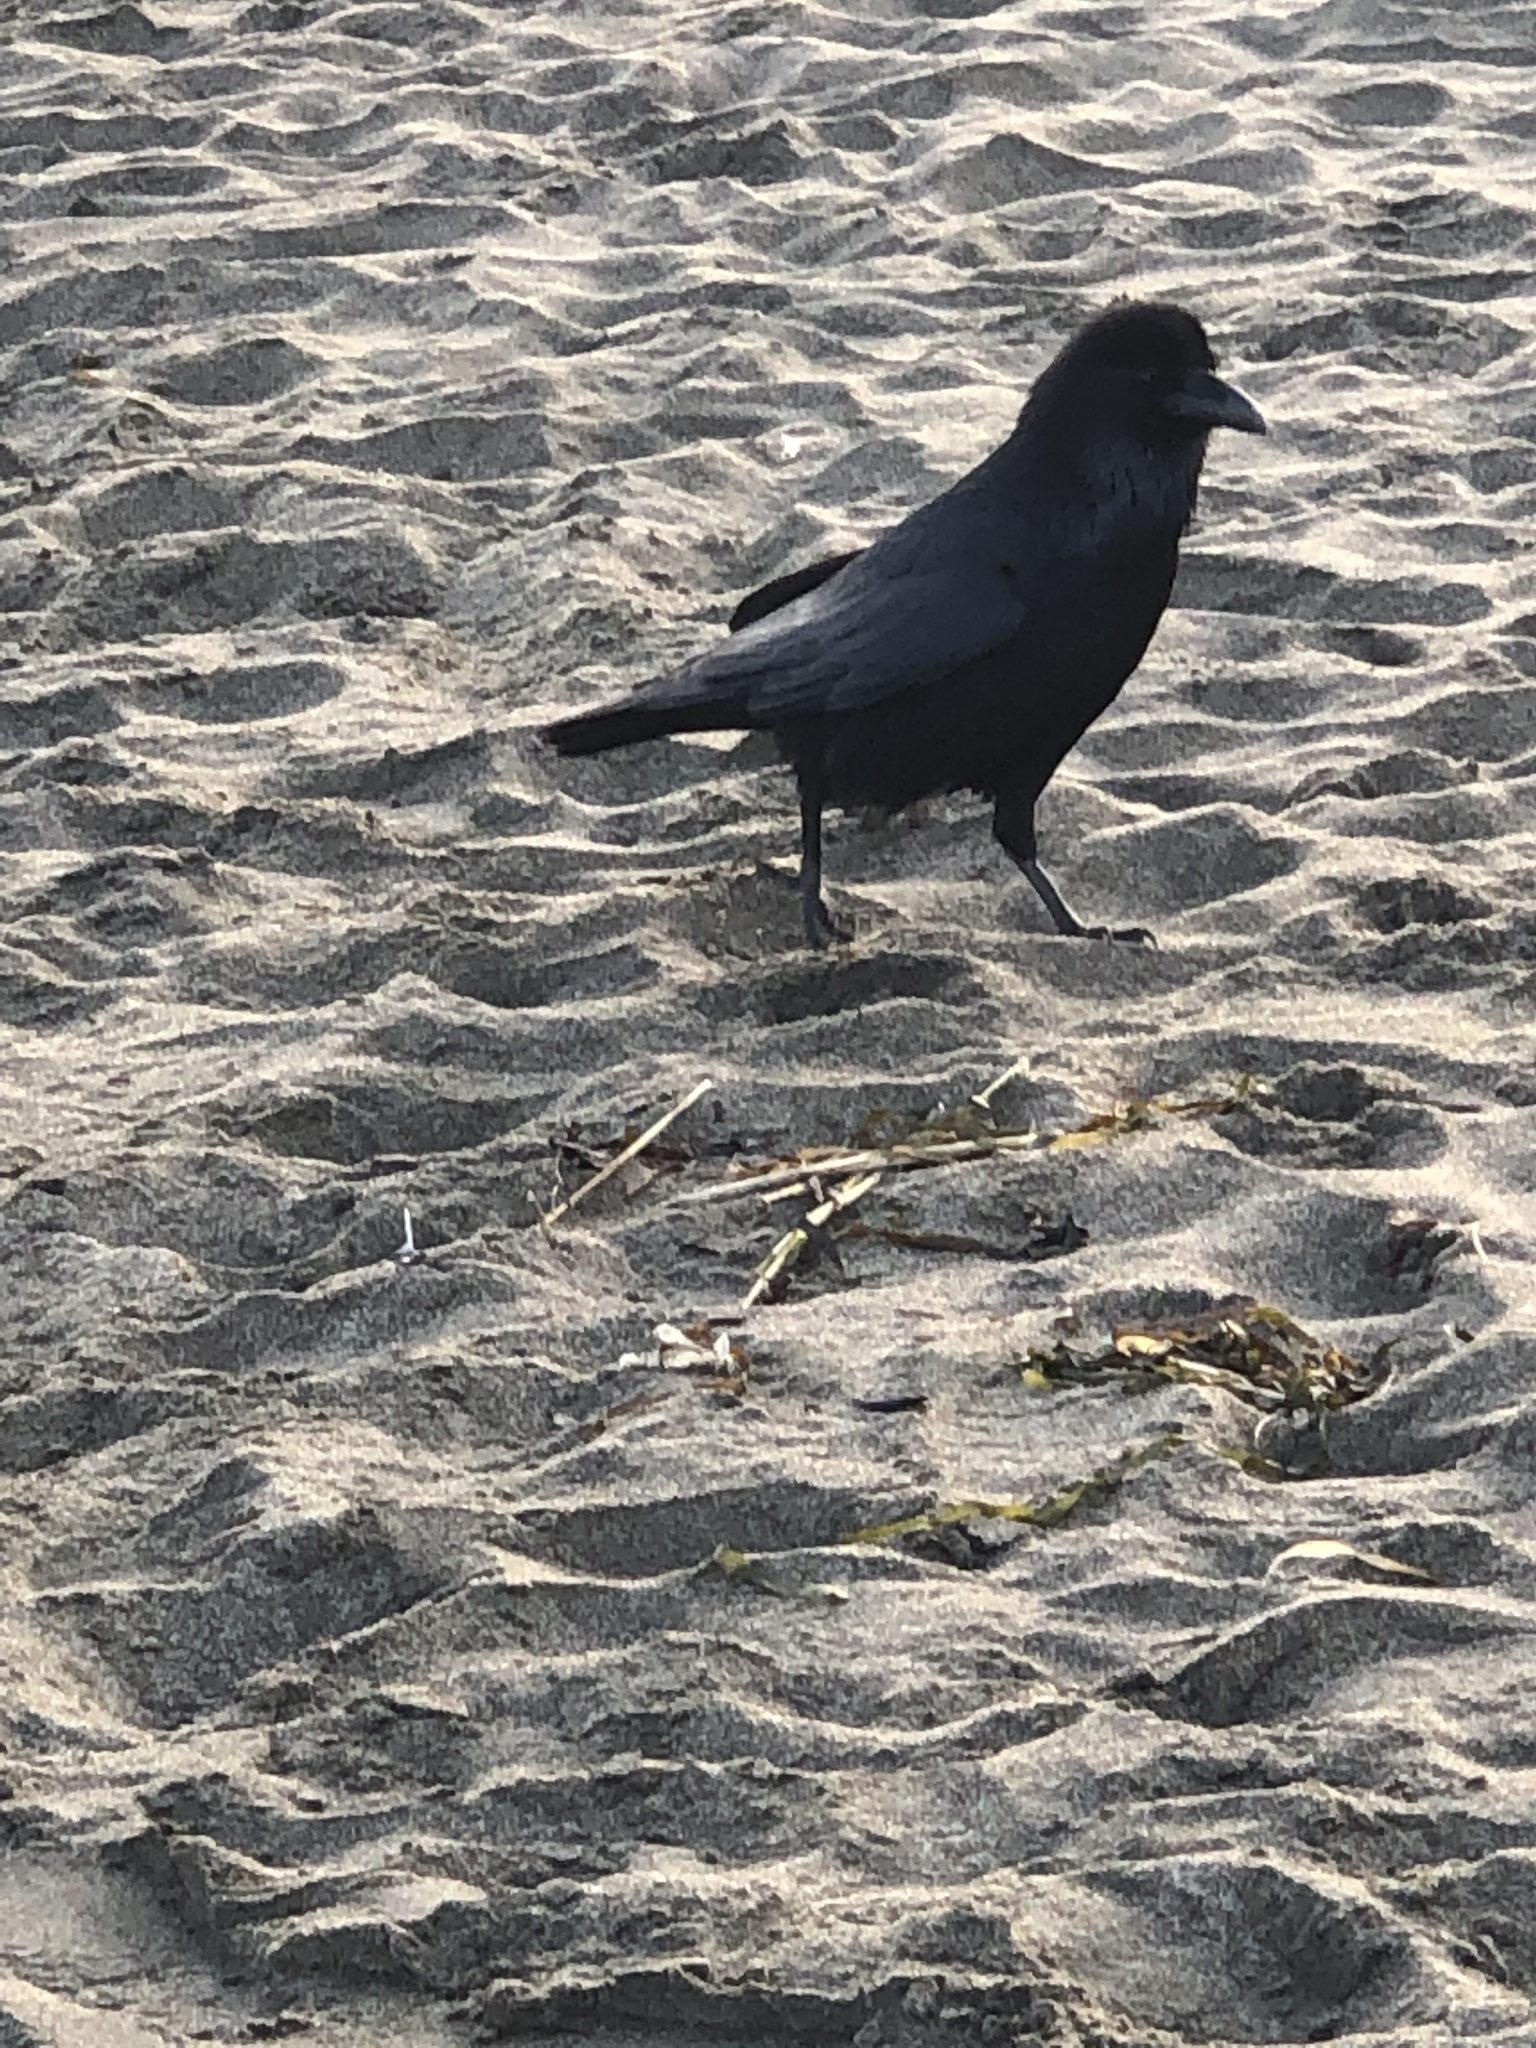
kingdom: Animalia
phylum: Chordata
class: Aves
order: Passeriformes
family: Corvidae
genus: Corvus
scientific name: Corvus corax
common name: Common raven
